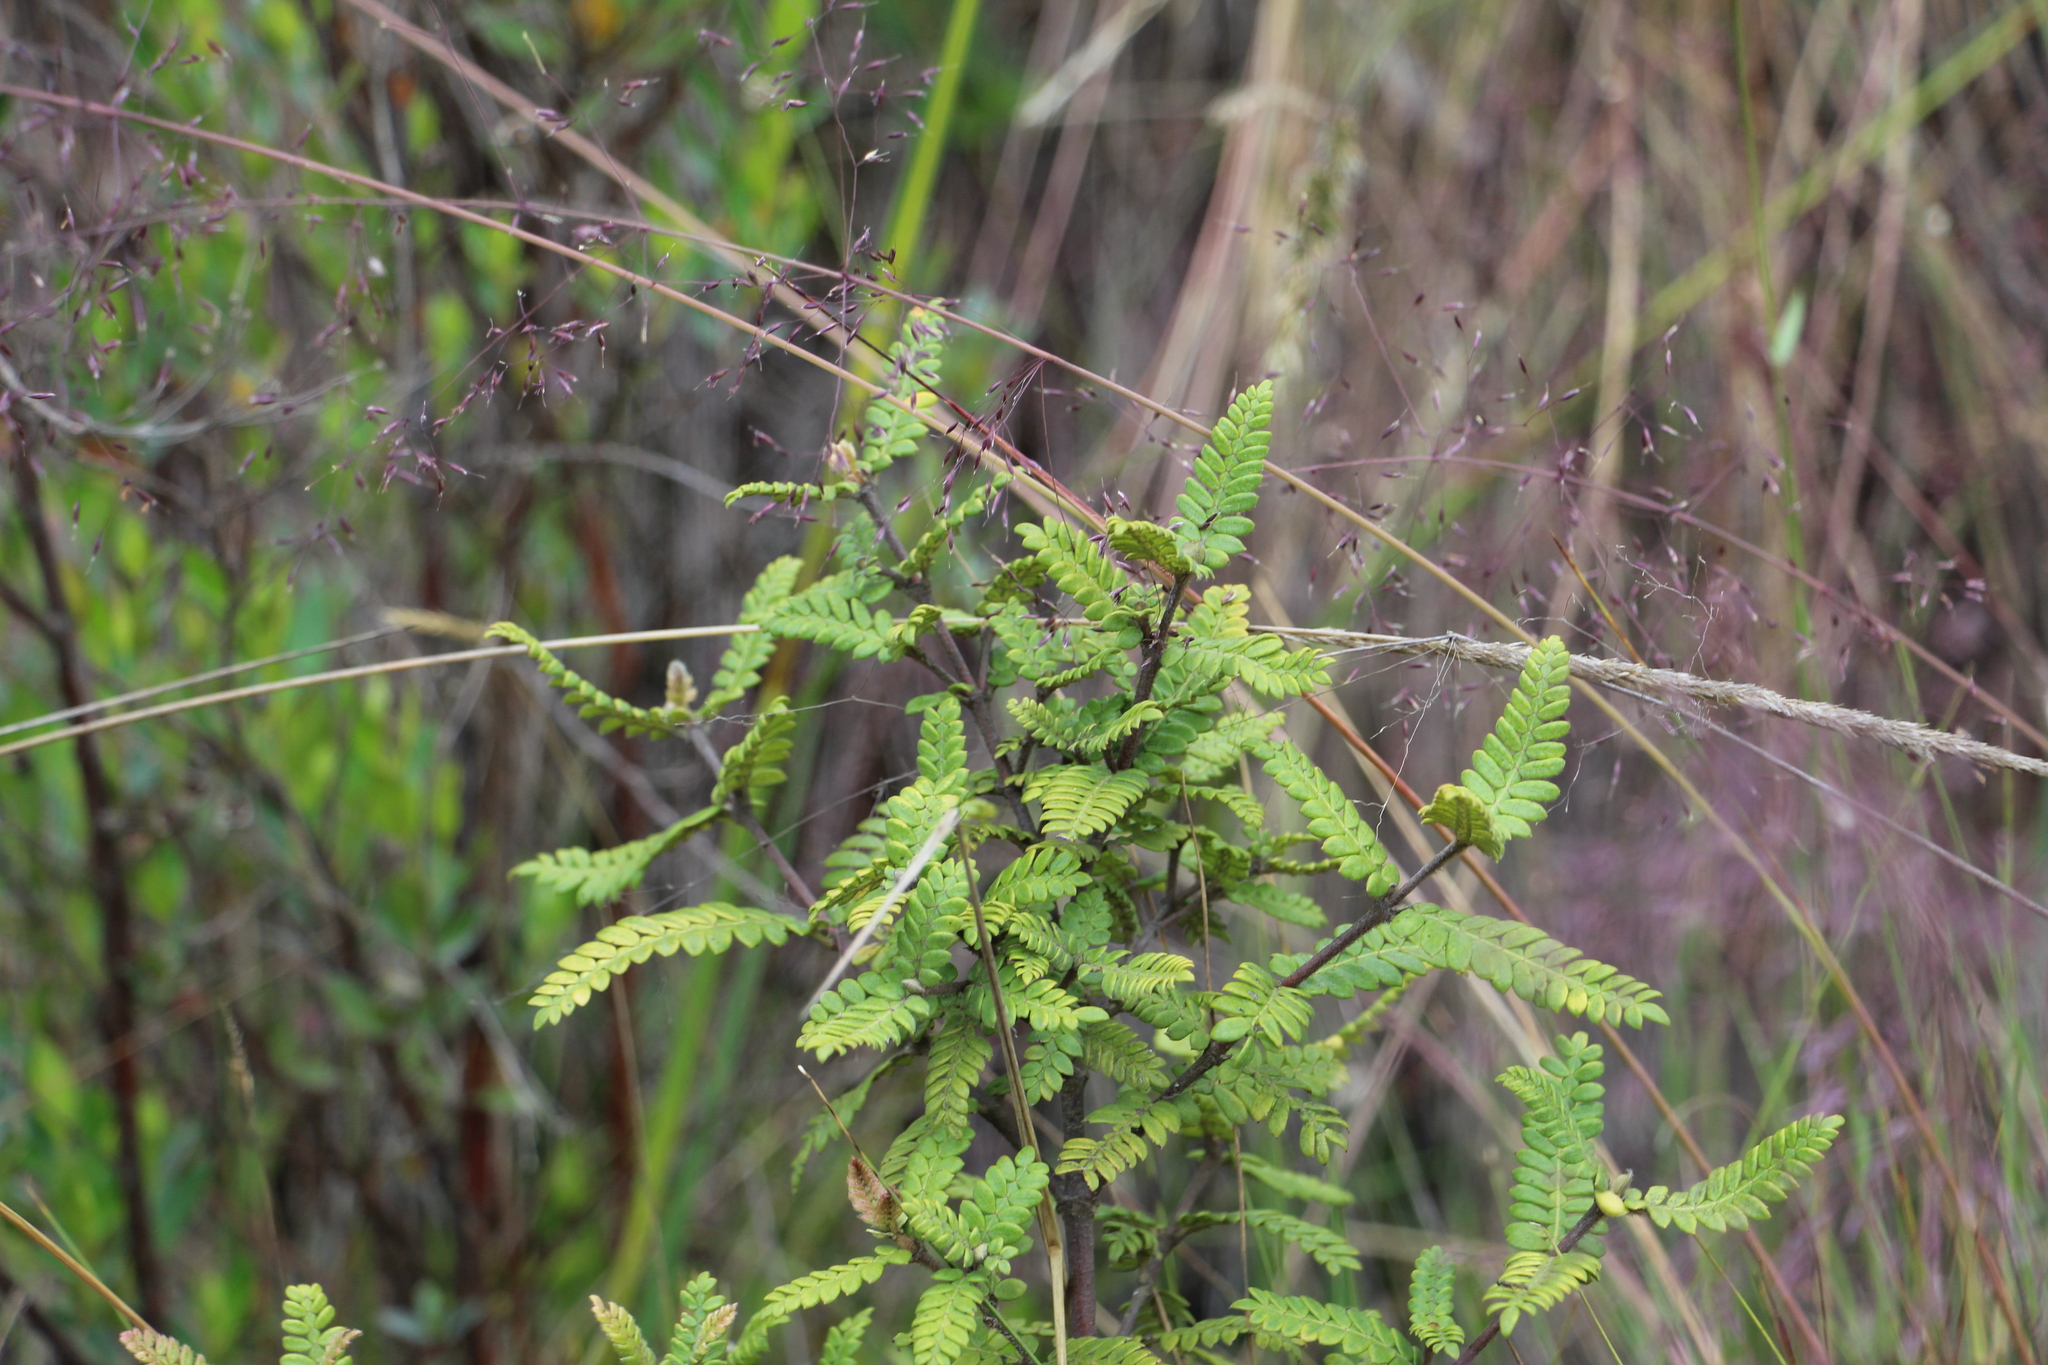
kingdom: Plantae
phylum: Tracheophyta
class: Magnoliopsida
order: Oxalidales
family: Cunoniaceae
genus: Weinmannia
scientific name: Weinmannia tomentosa
